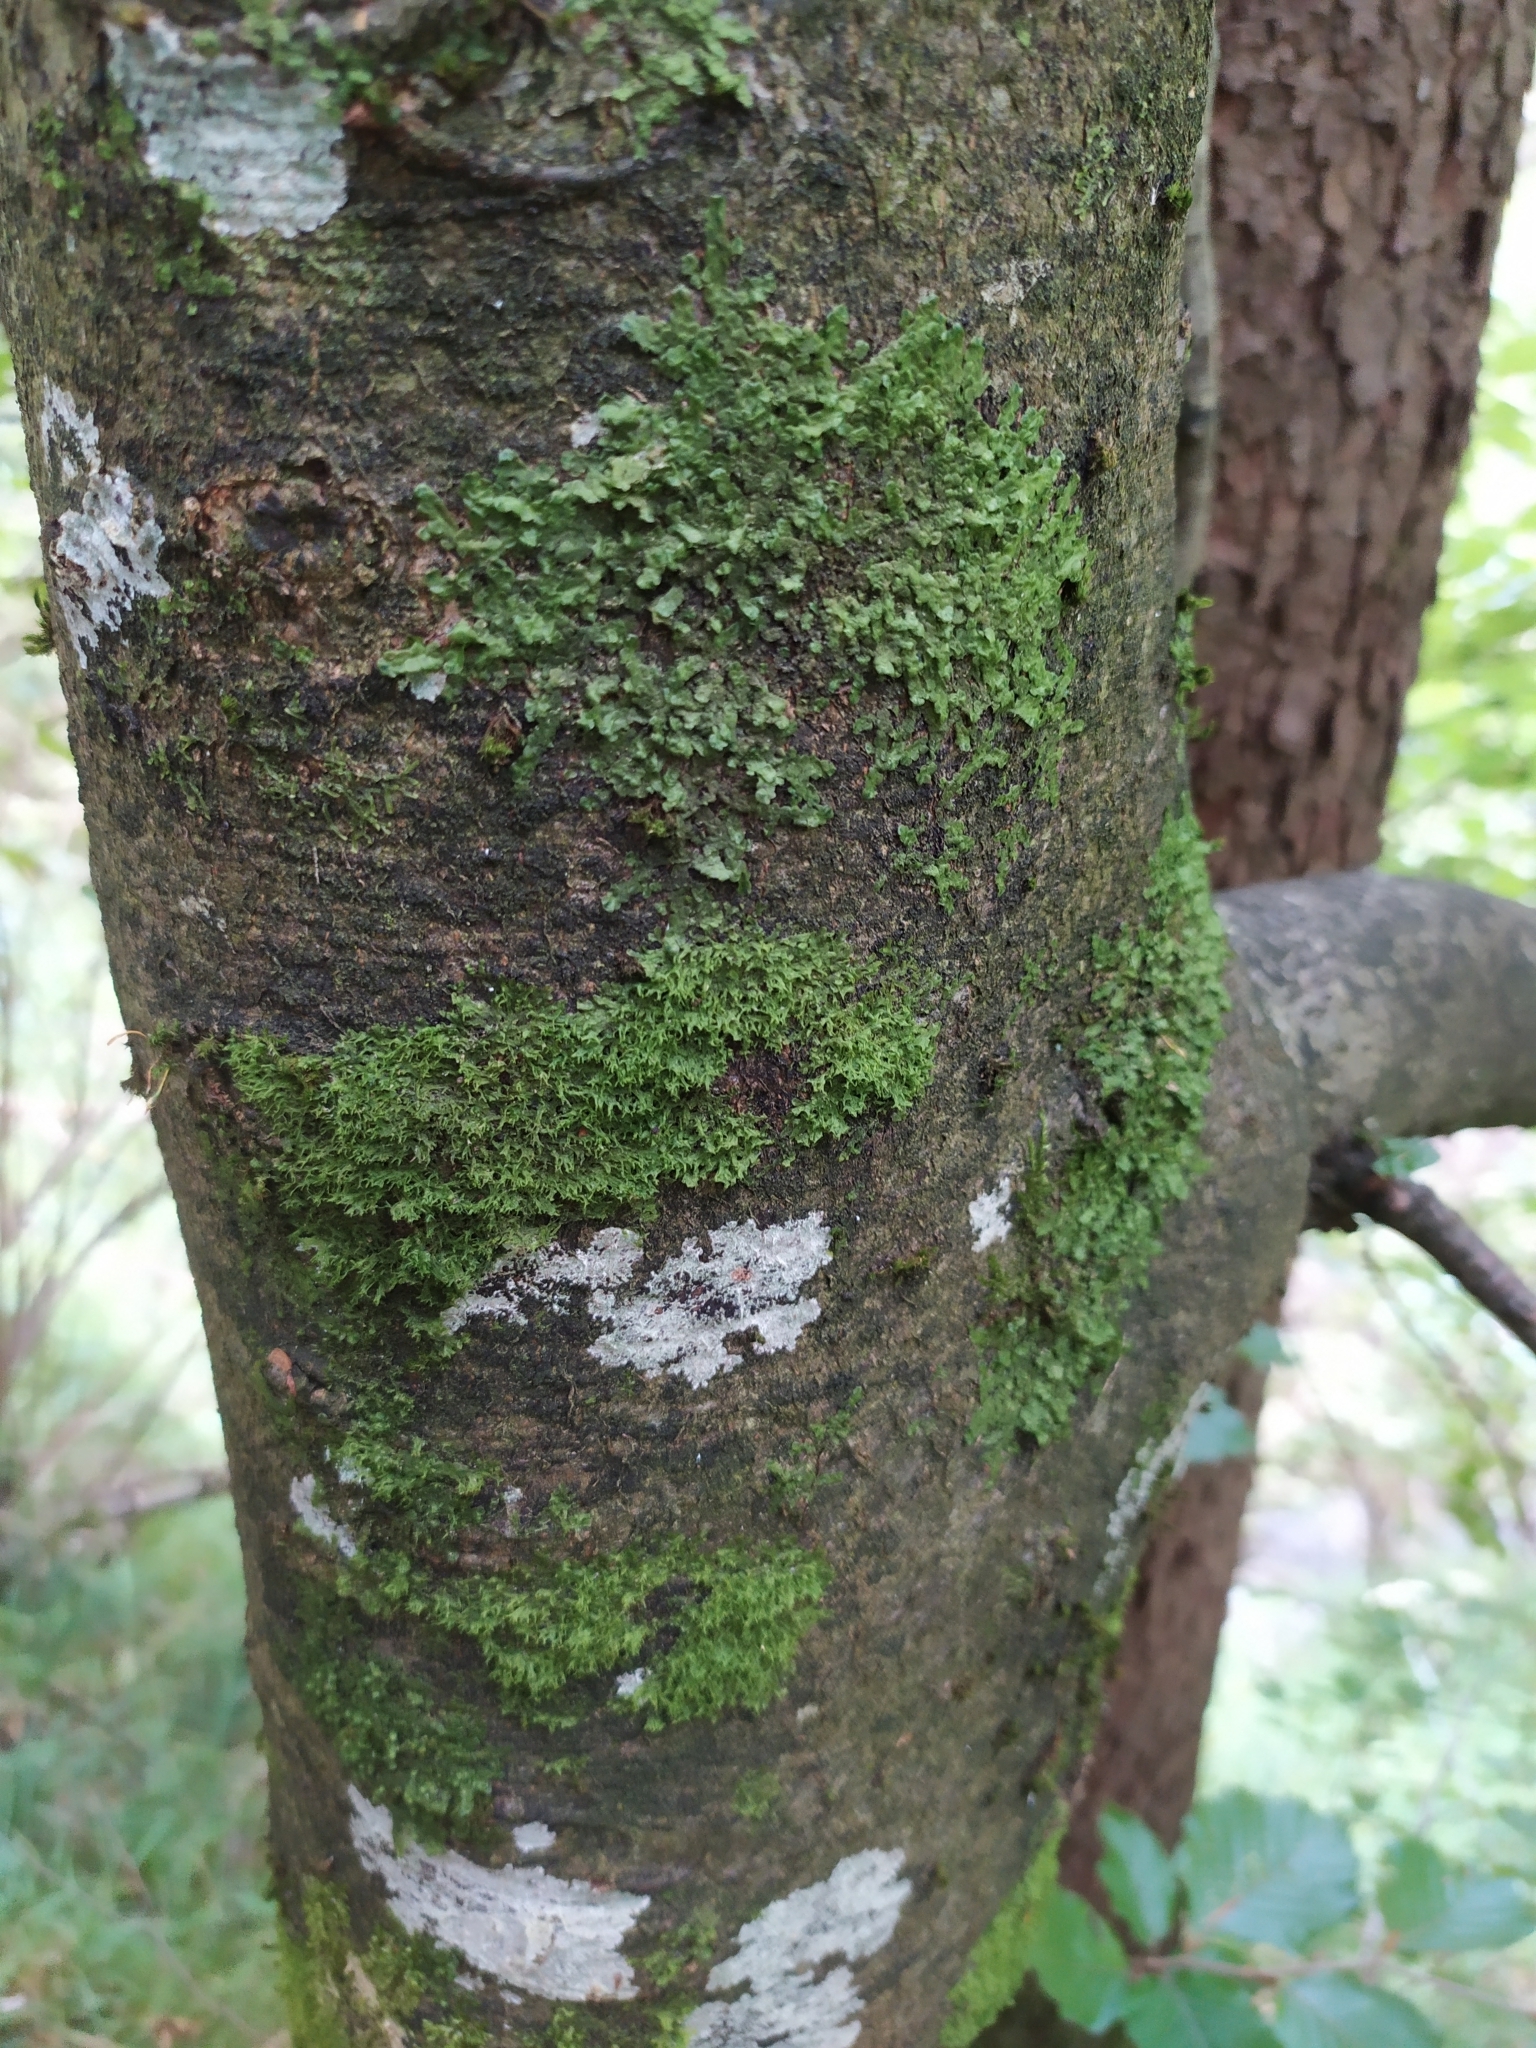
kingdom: Plantae
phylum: Marchantiophyta
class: Jungermanniopsida
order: Metzgeriales
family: Metzgeriaceae
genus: Metzgeria
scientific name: Metzgeria violacea
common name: Blueish veilwort
